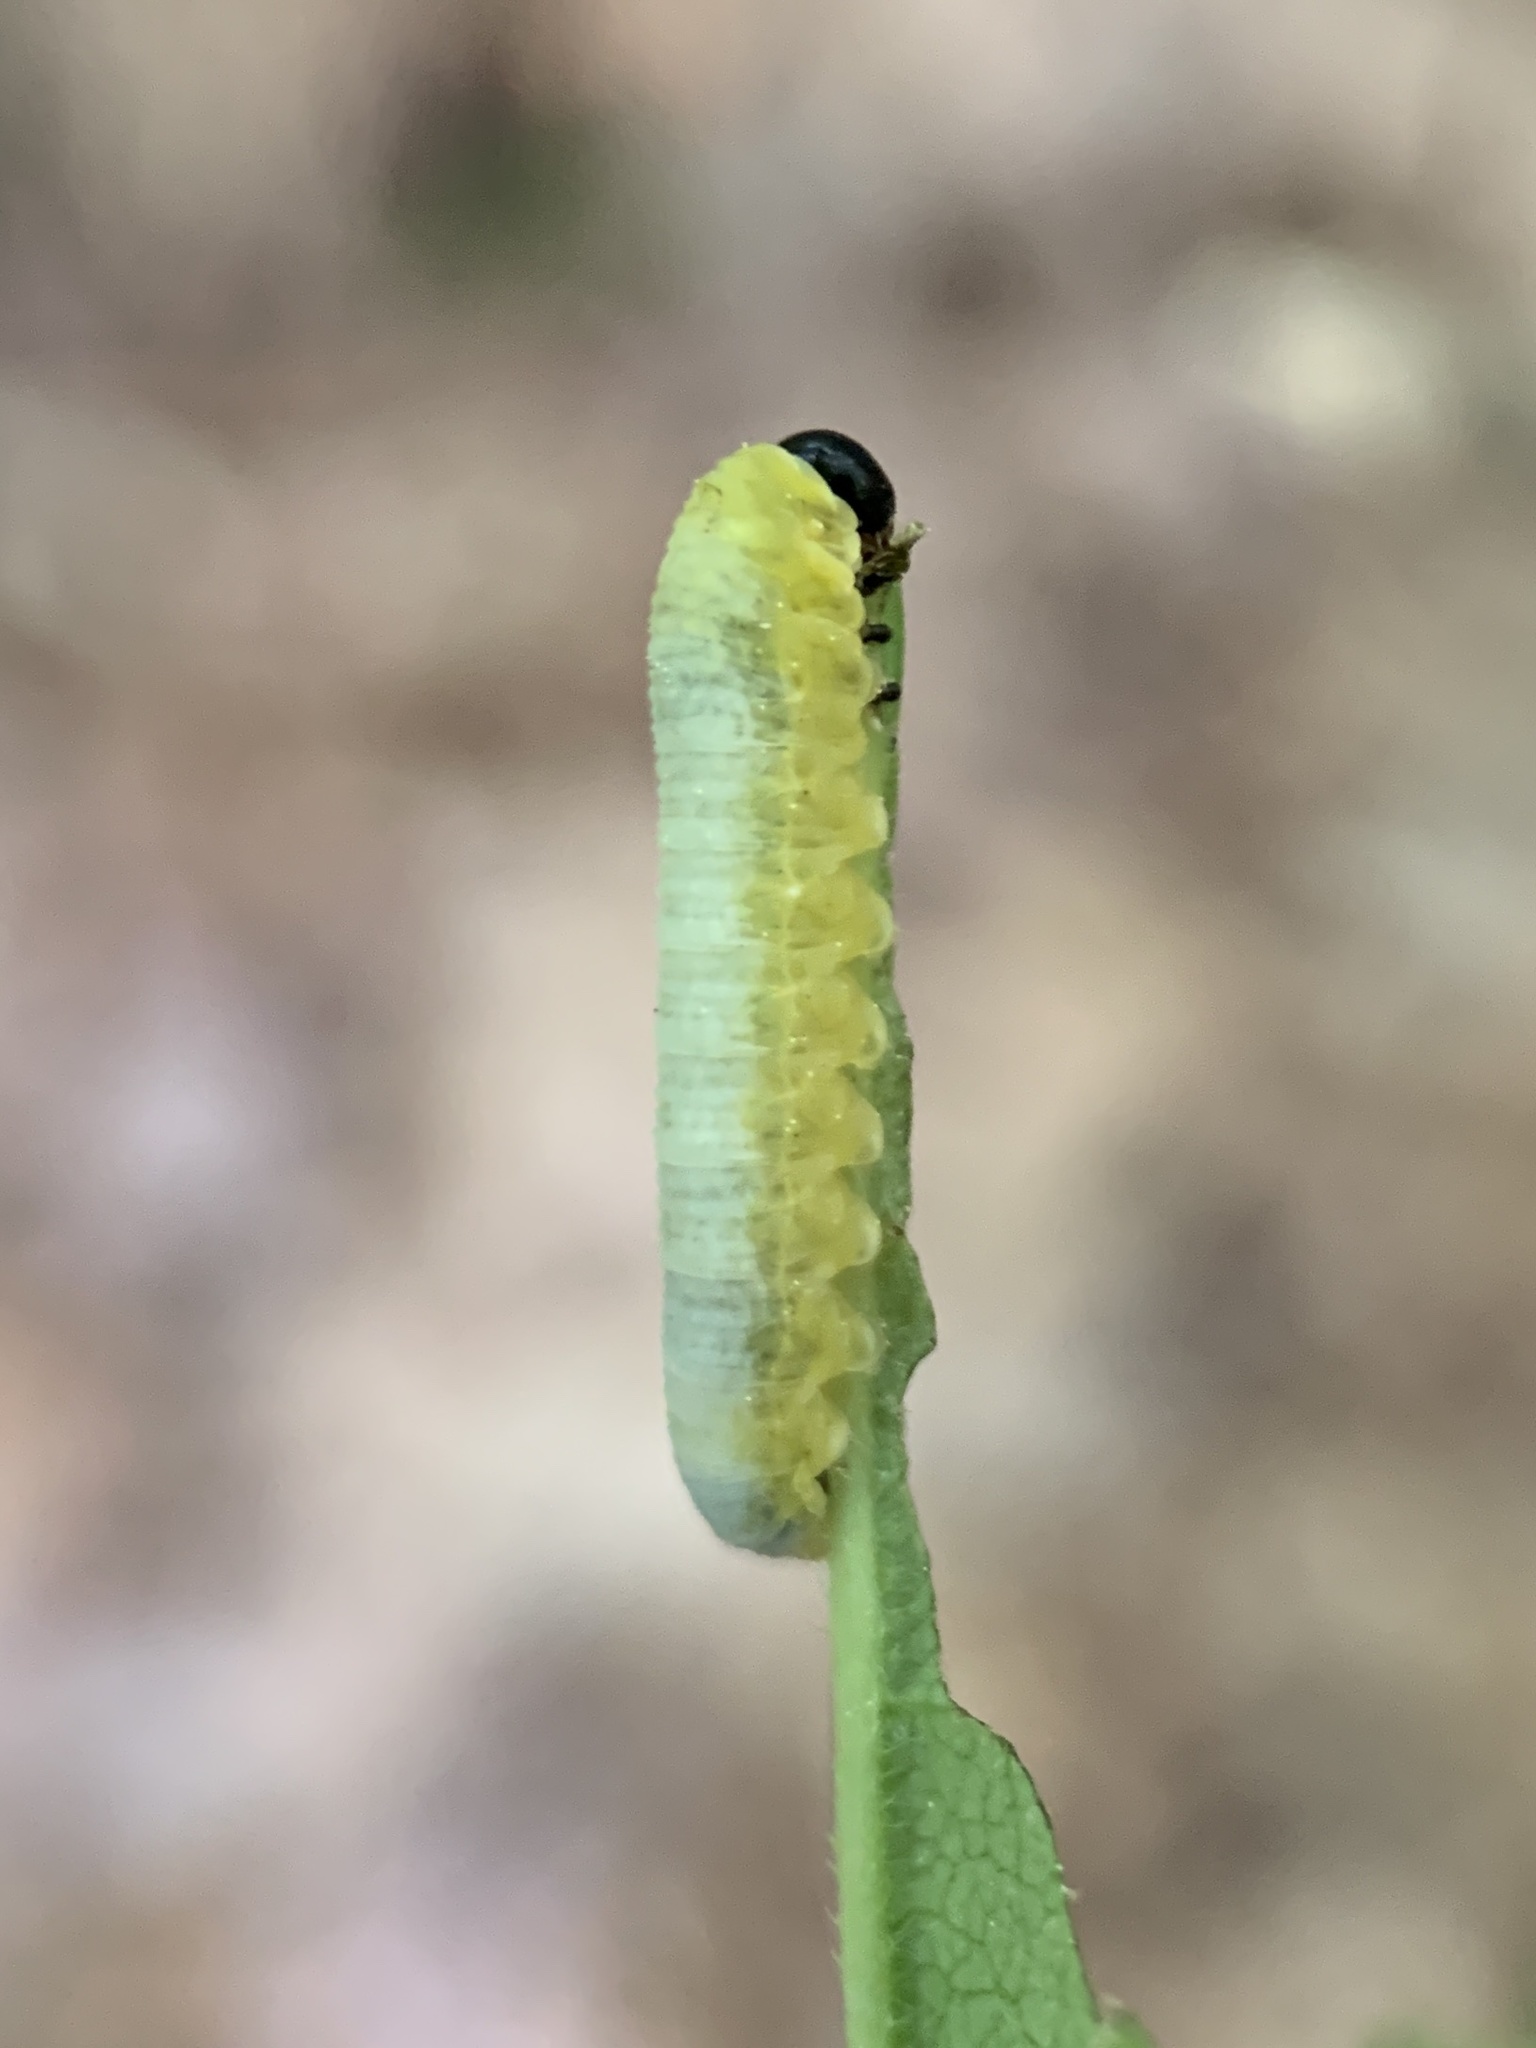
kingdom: Animalia
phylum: Arthropoda
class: Insecta
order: Hymenoptera
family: Tenthredinidae
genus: Tethida
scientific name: Tethida barda
